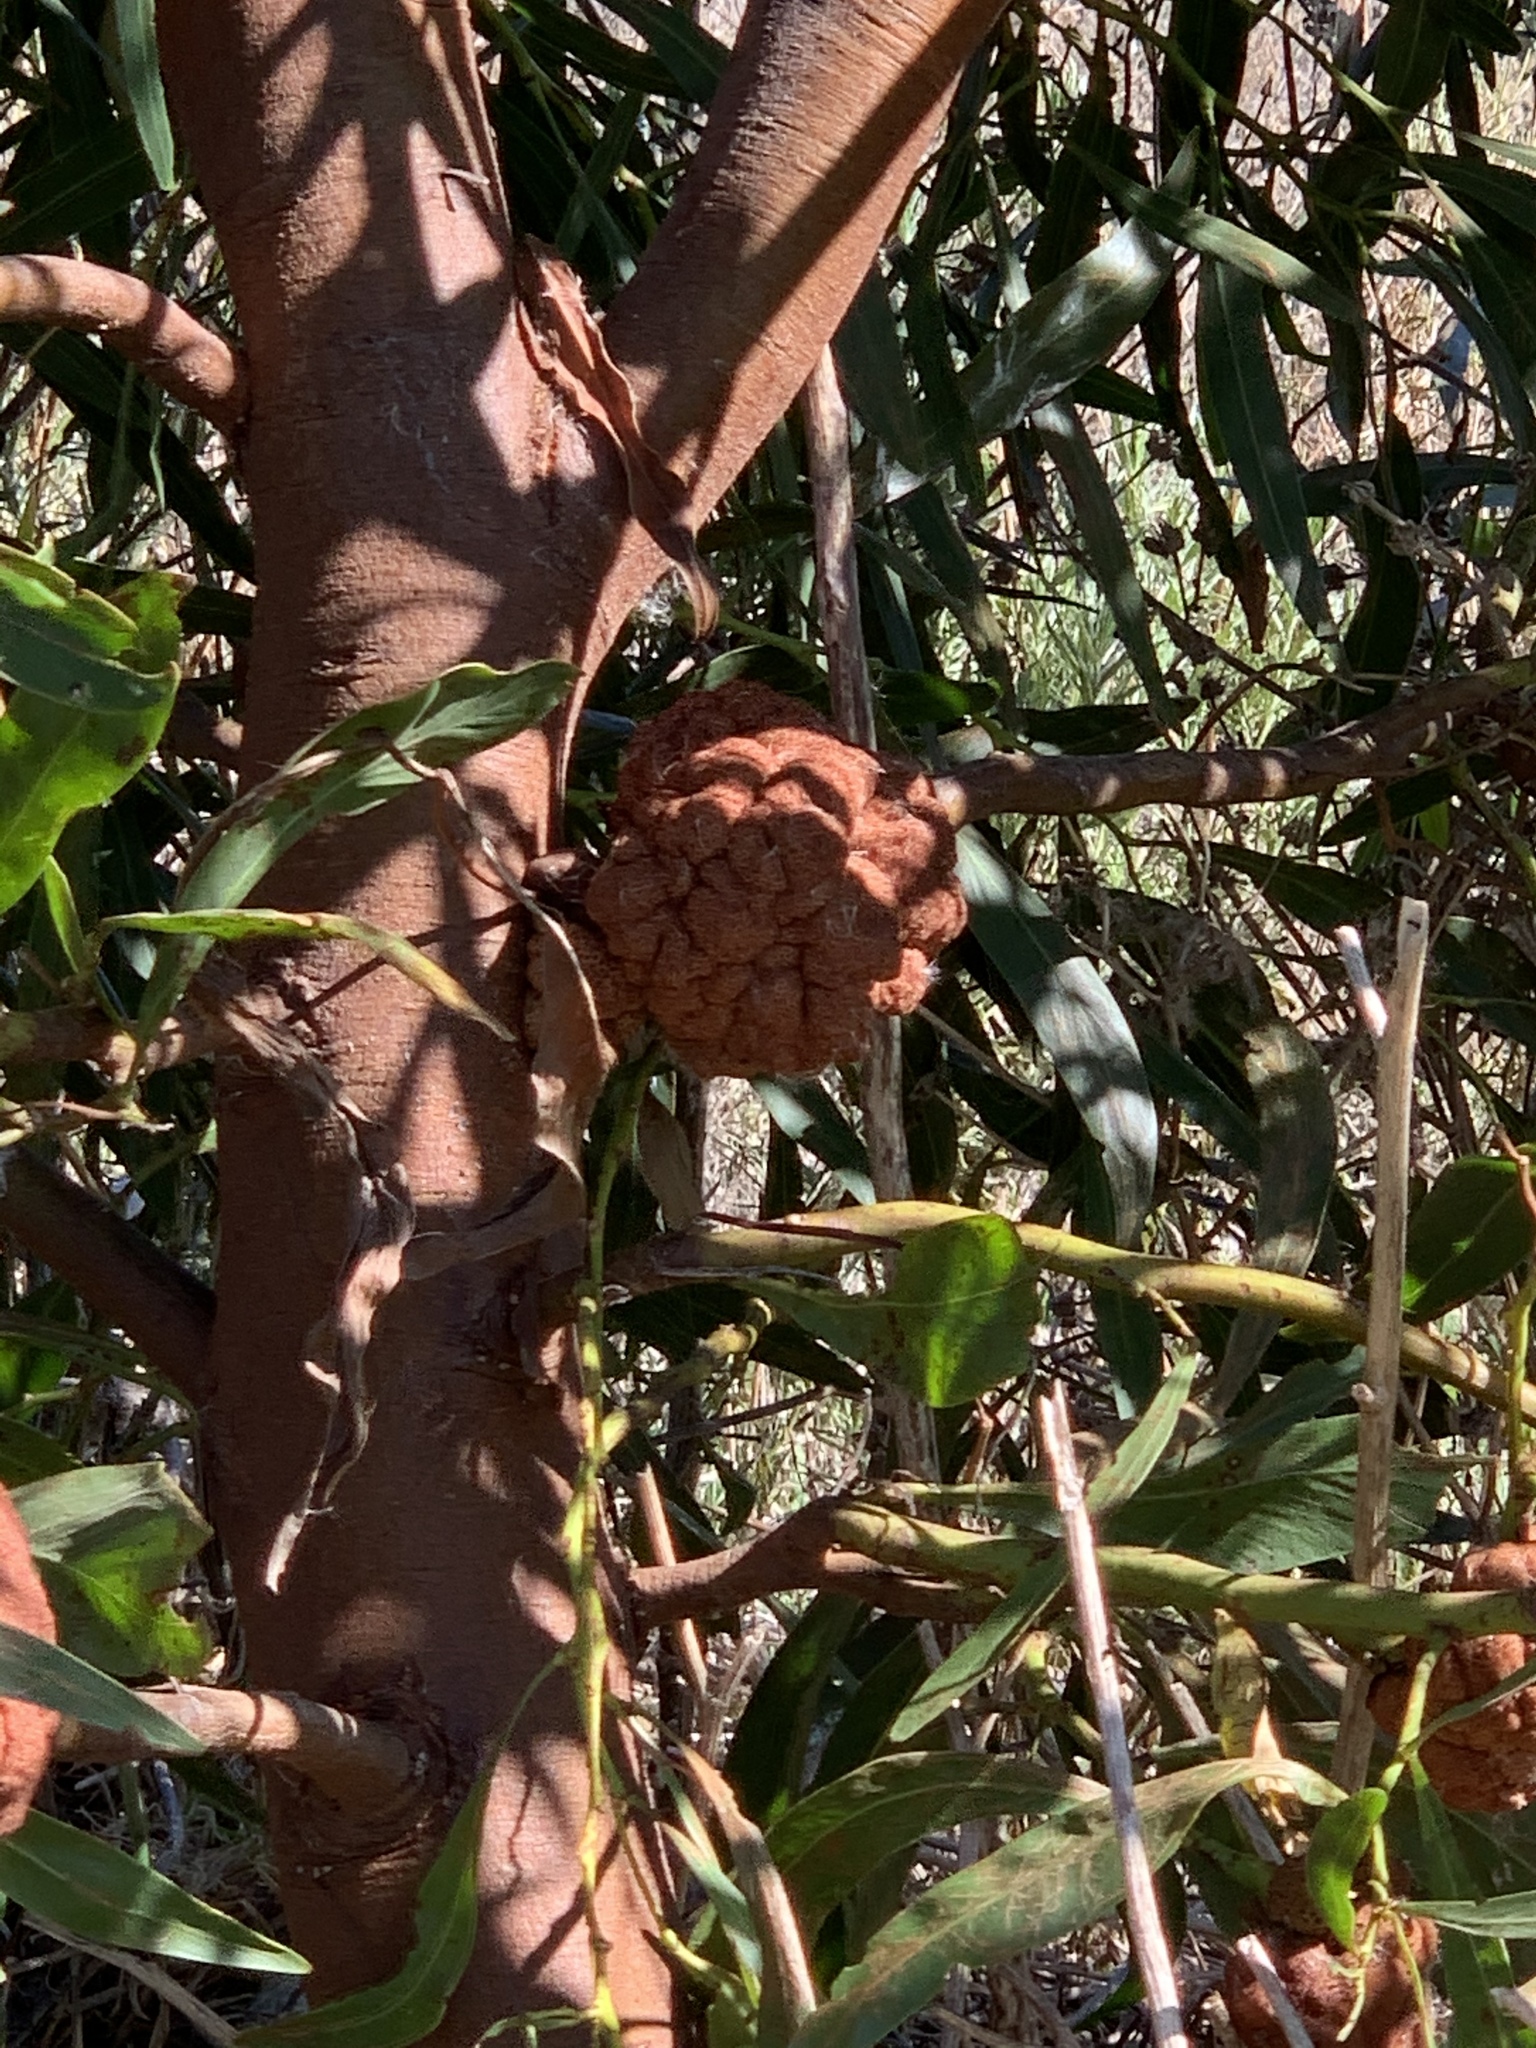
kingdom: Fungi
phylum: Basidiomycota
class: Pucciniomycetes
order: Pucciniales
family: Uromycladiaceae
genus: Uromycladium
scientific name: Uromycladium morrisii
